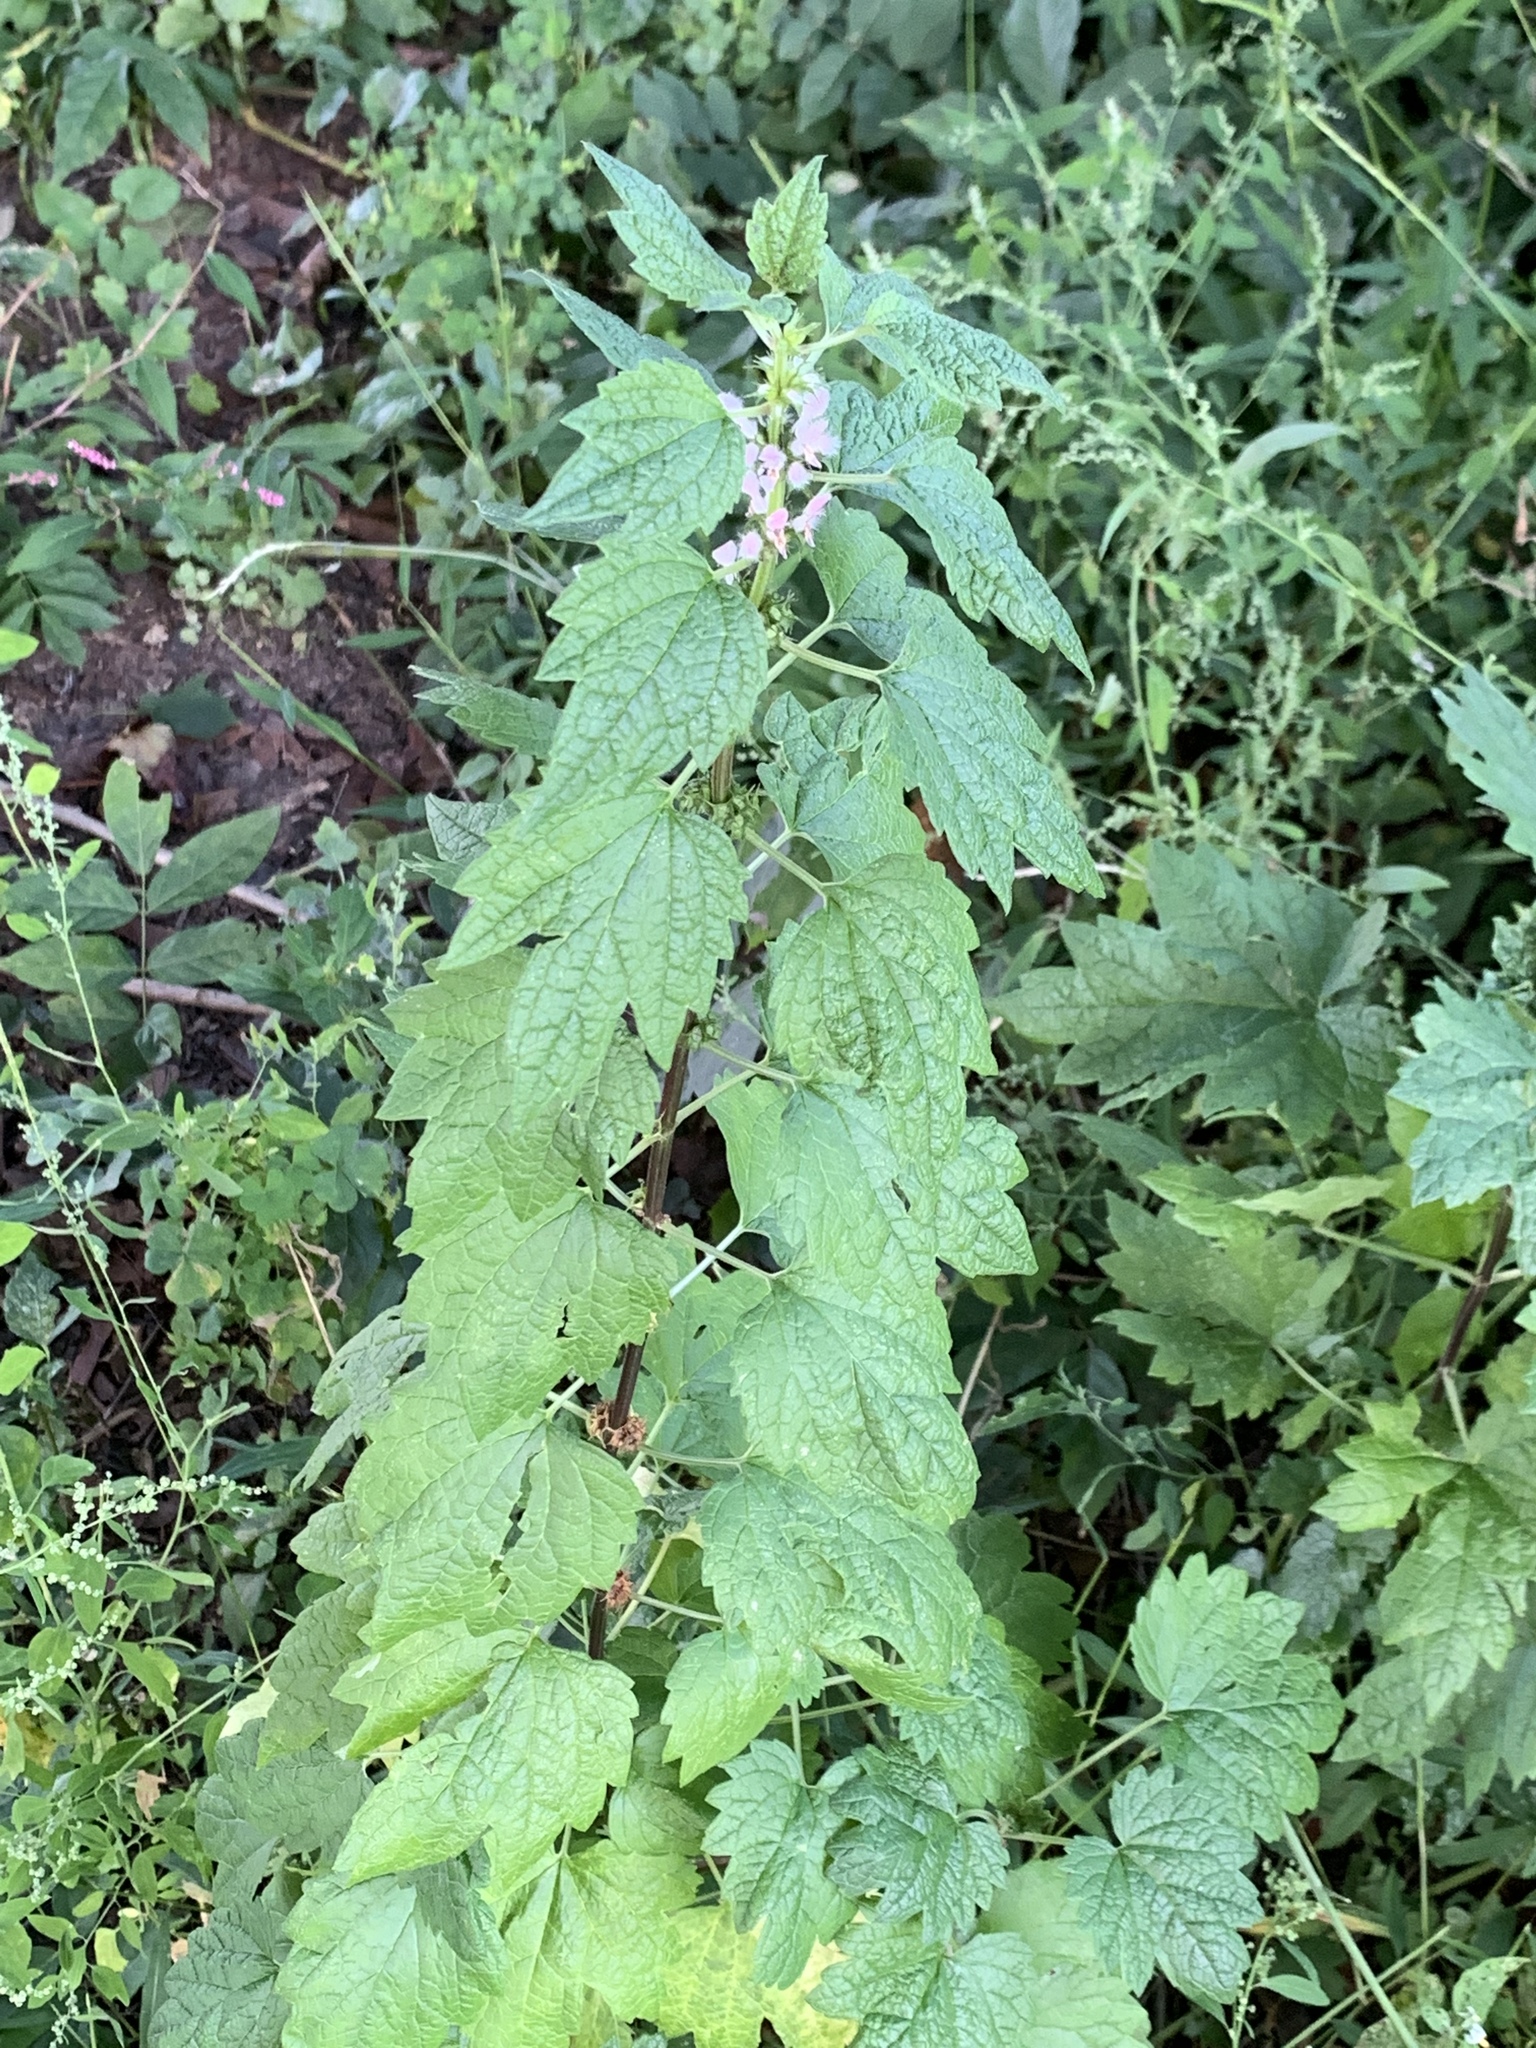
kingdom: Plantae
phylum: Tracheophyta
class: Magnoliopsida
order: Lamiales
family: Lamiaceae
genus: Leonurus
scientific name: Leonurus cardiaca
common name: Motherwort
